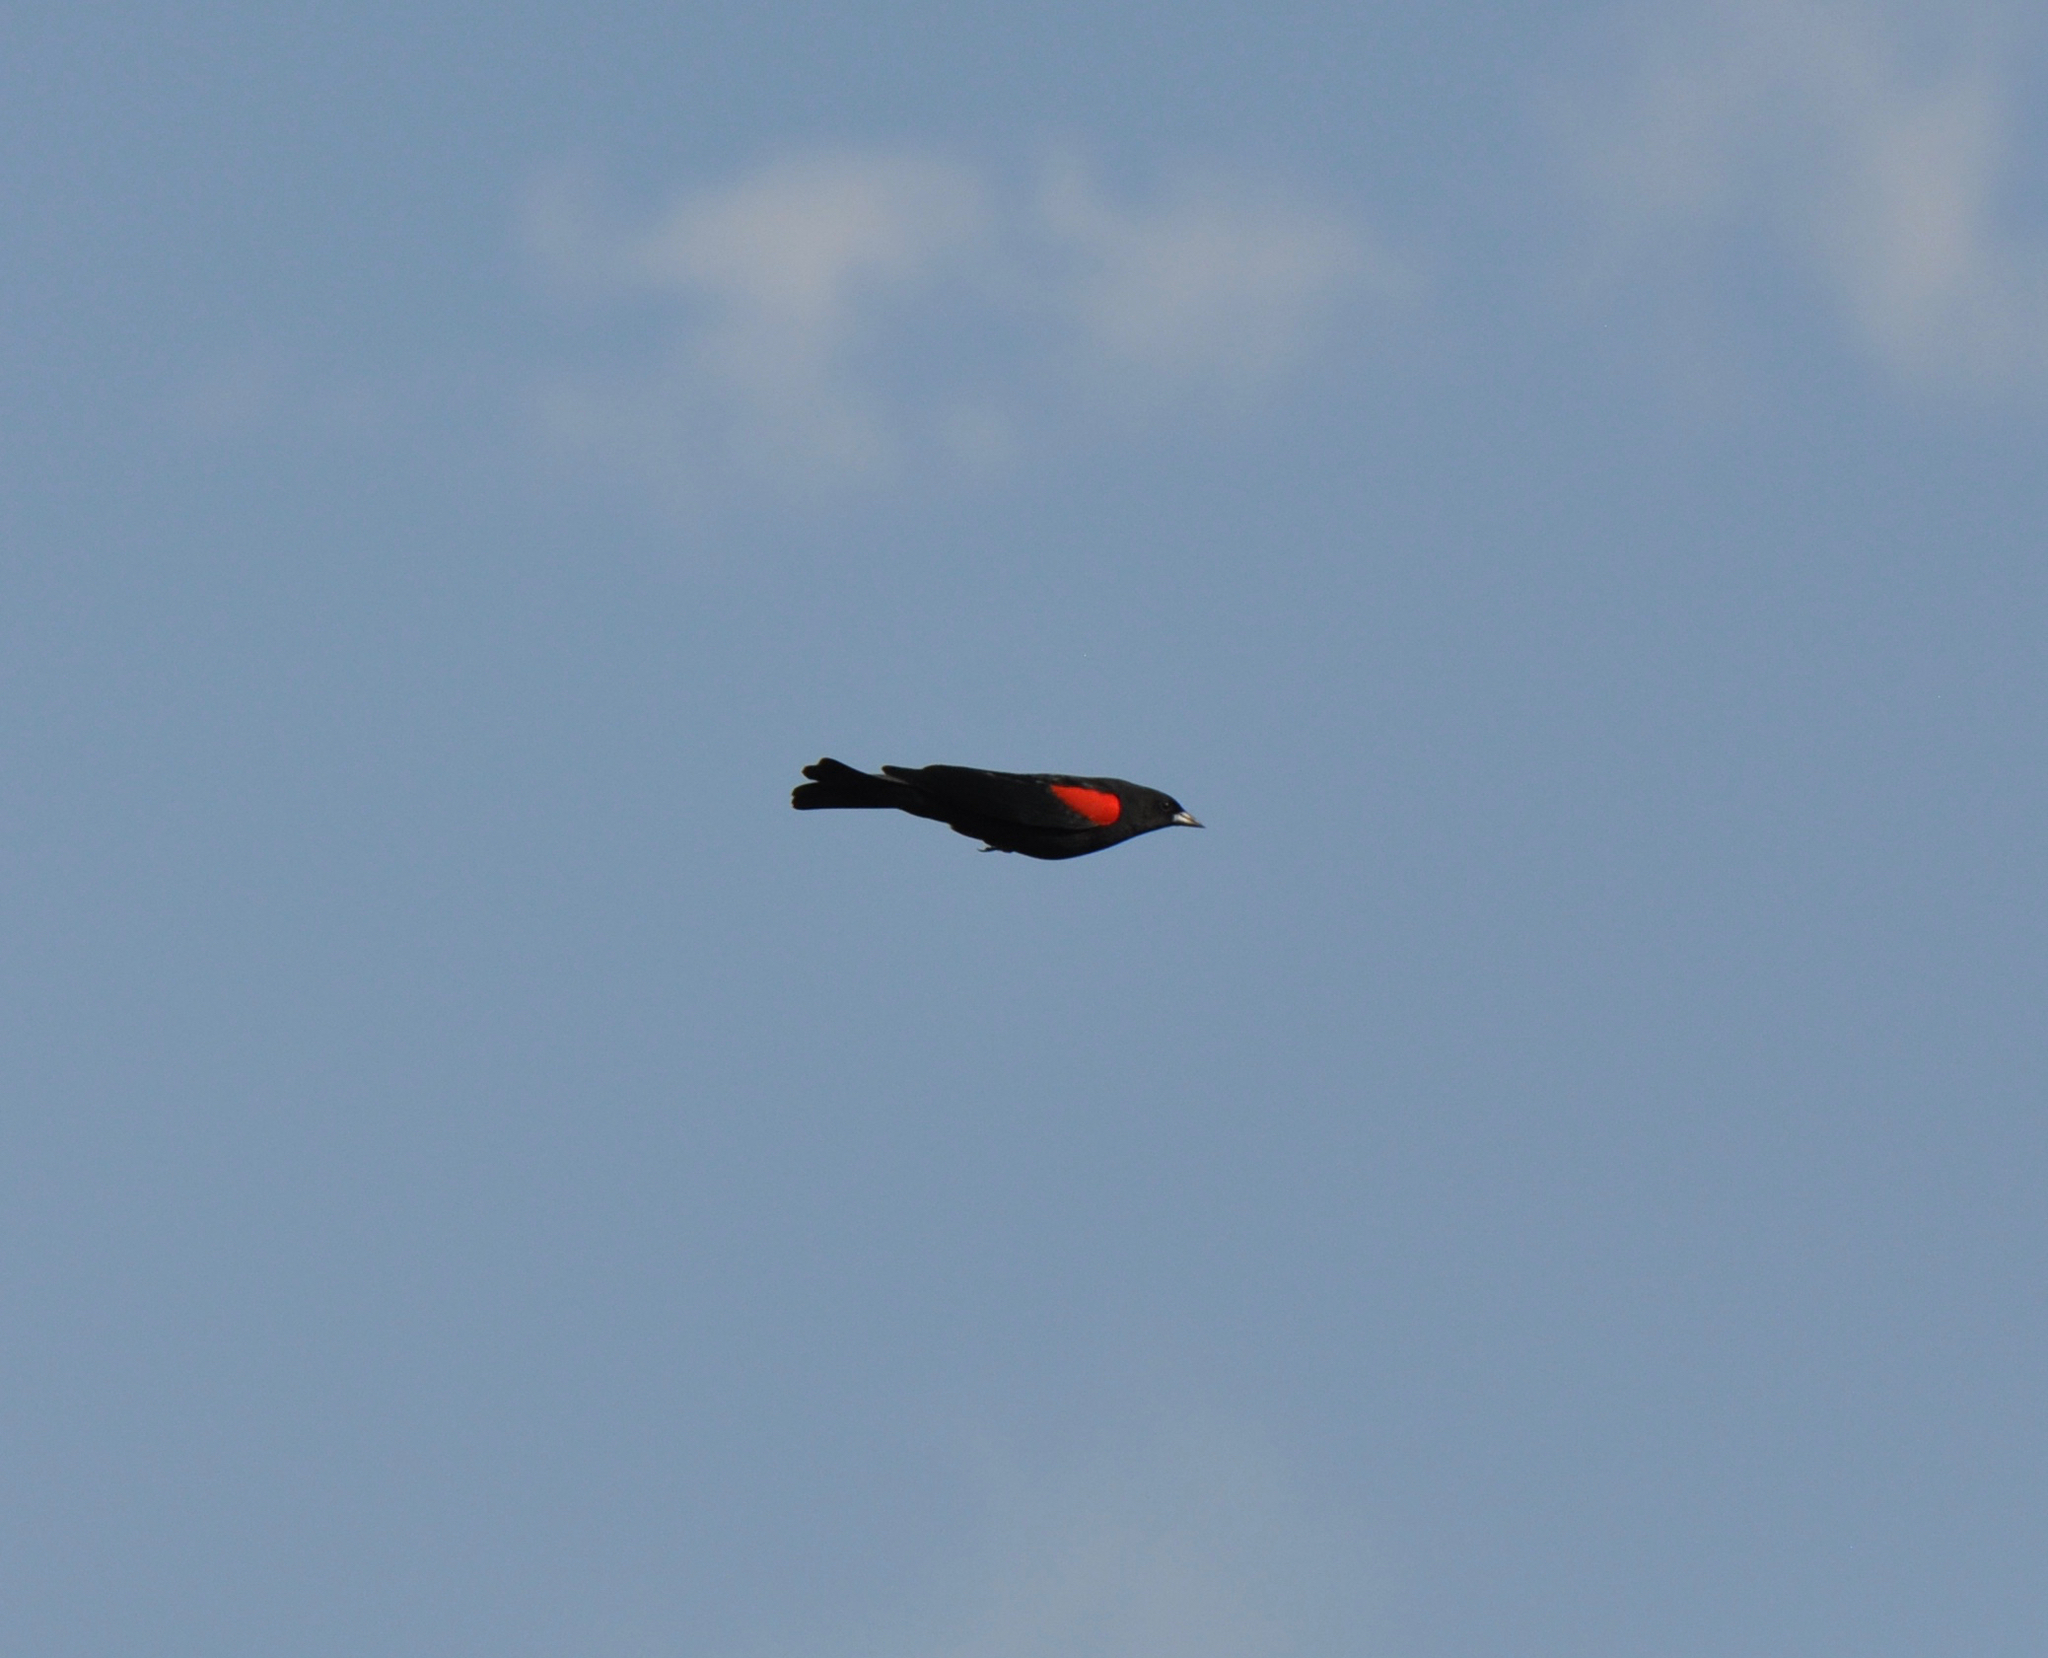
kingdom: Animalia
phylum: Chordata
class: Aves
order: Passeriformes
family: Icteridae
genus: Agelaius
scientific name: Agelaius phoeniceus
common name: Red-winged blackbird
